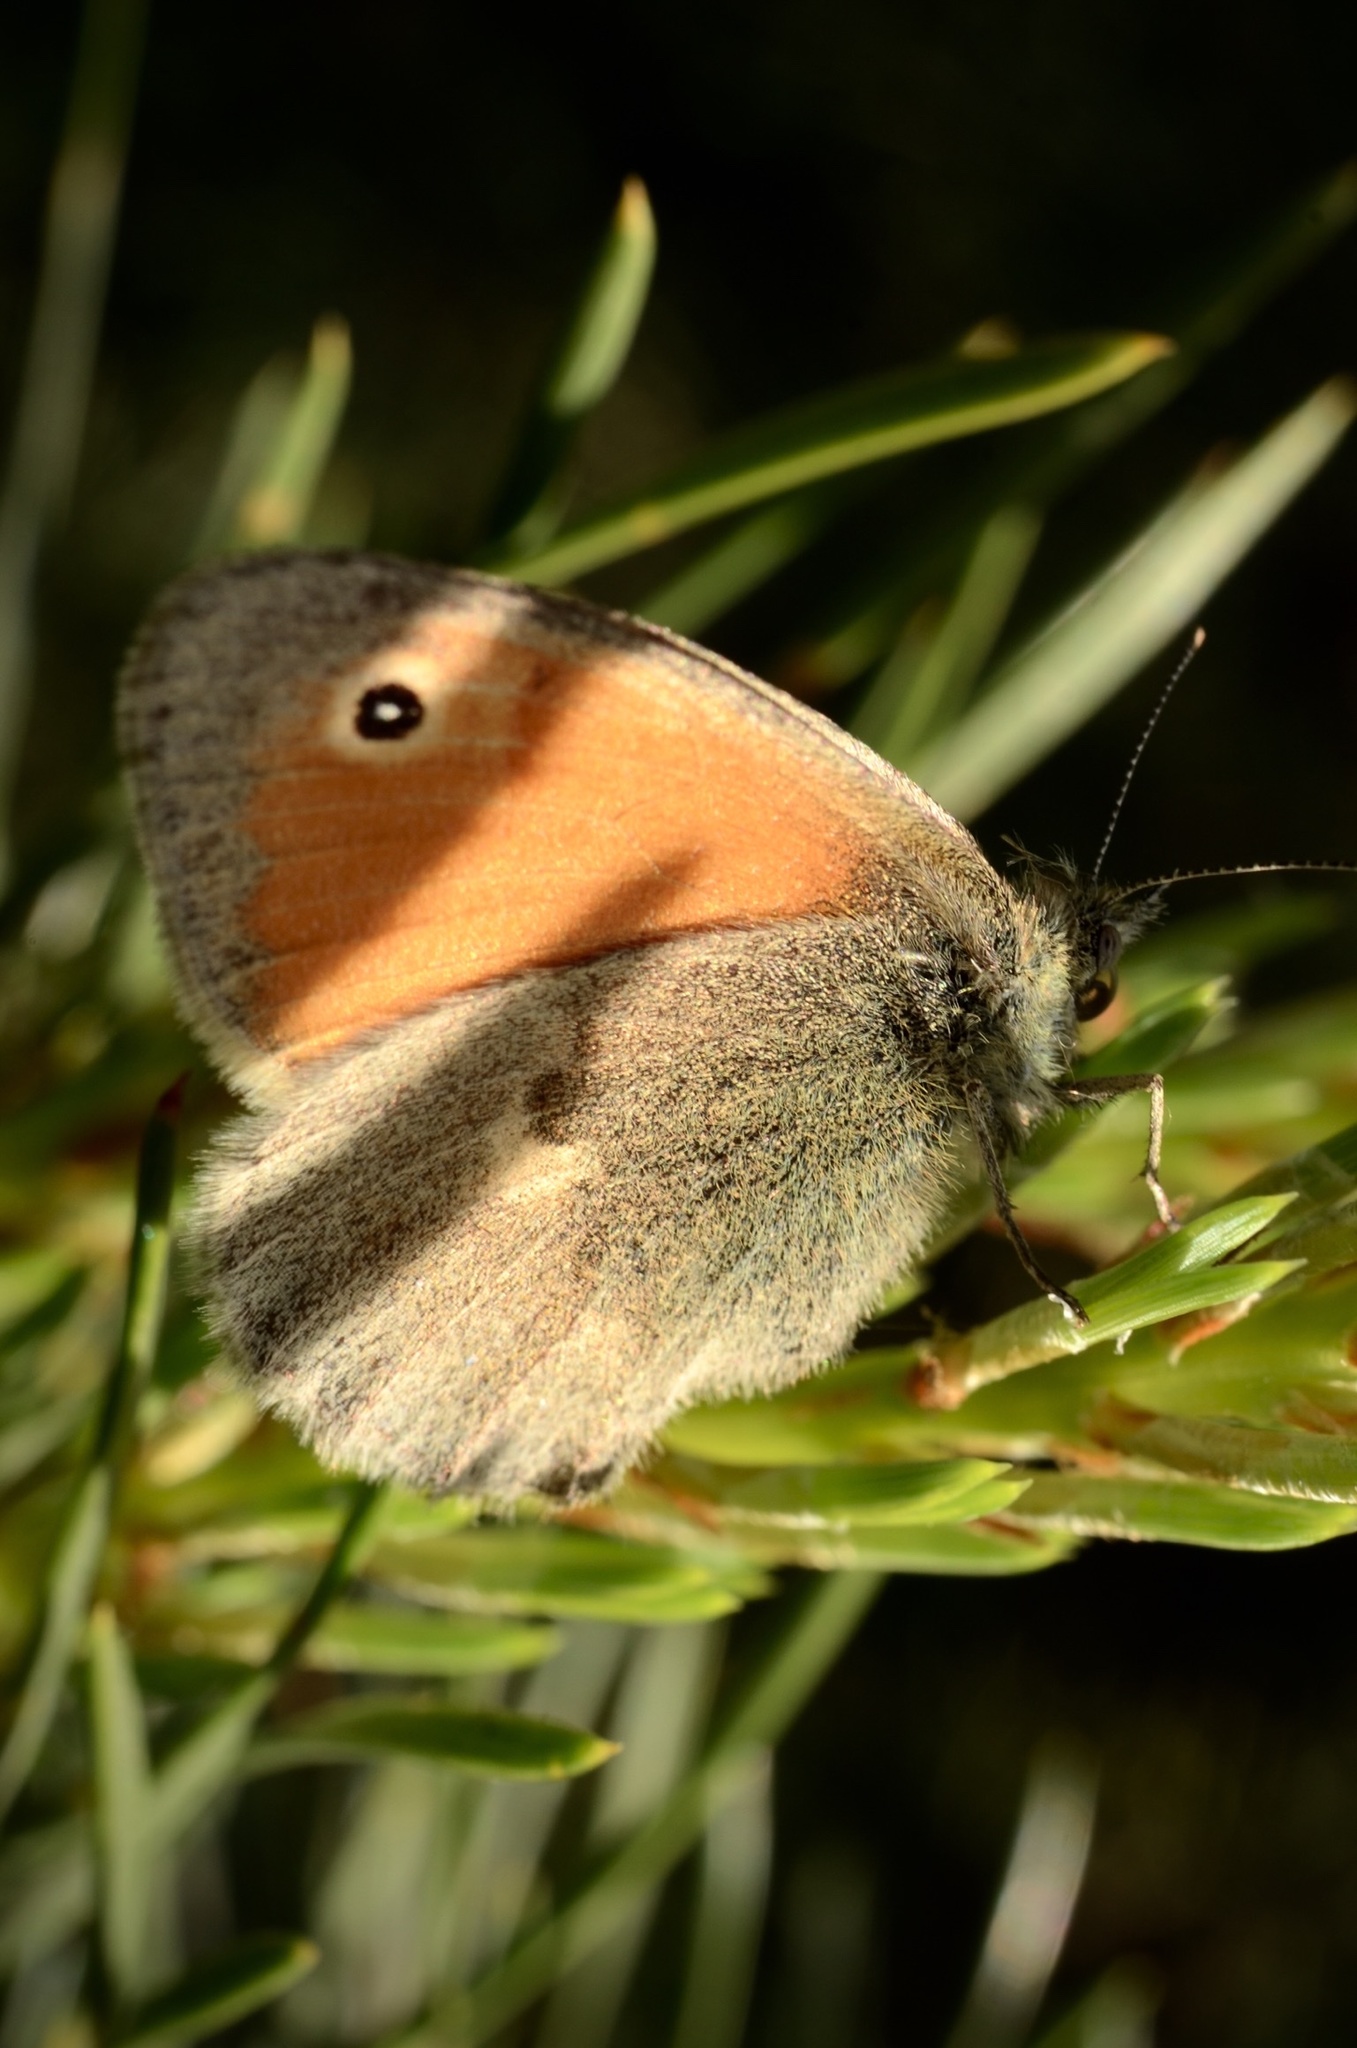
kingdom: Animalia
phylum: Arthropoda
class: Insecta
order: Lepidoptera
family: Nymphalidae
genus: Coenonympha
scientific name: Coenonympha pamphilus
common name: Small heath
